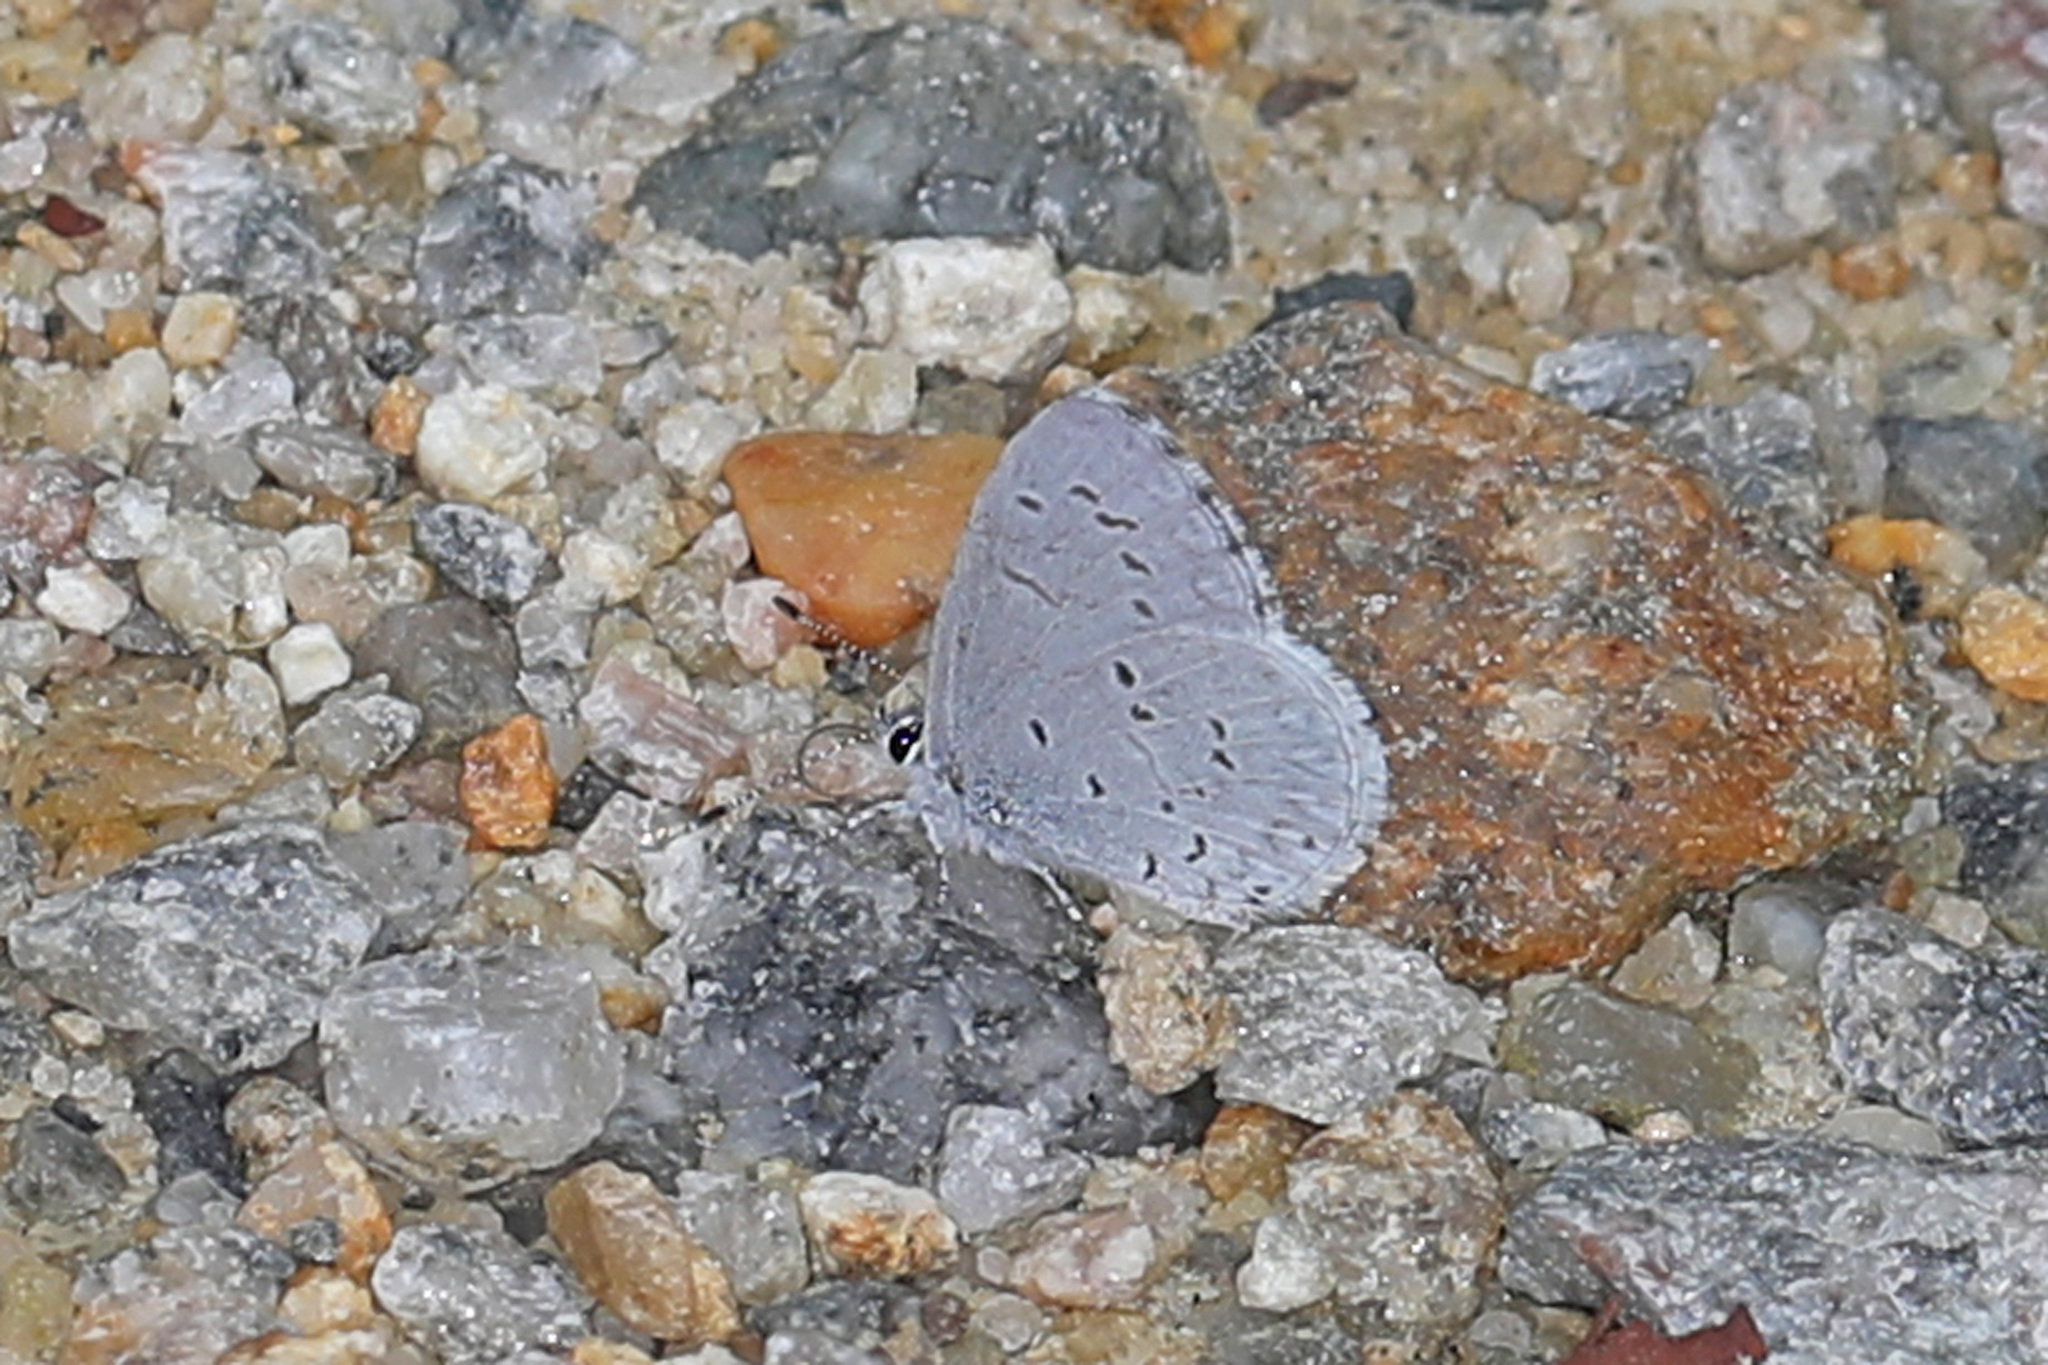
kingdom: Animalia
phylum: Arthropoda
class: Insecta
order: Lepidoptera
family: Lycaenidae
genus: Cyaniris
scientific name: Cyaniris neglecta
